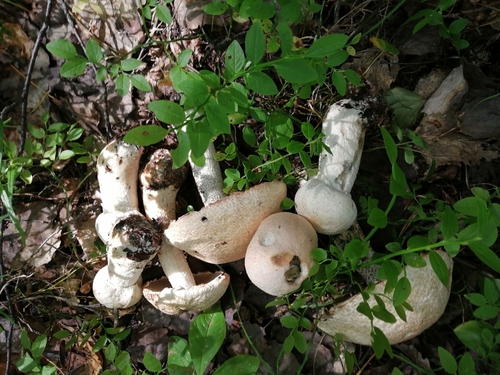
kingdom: Fungi
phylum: Basidiomycota
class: Agaricomycetes
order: Boletales
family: Boletaceae
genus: Leccinum
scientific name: Leccinum versipelle
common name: Orange birch bolete
